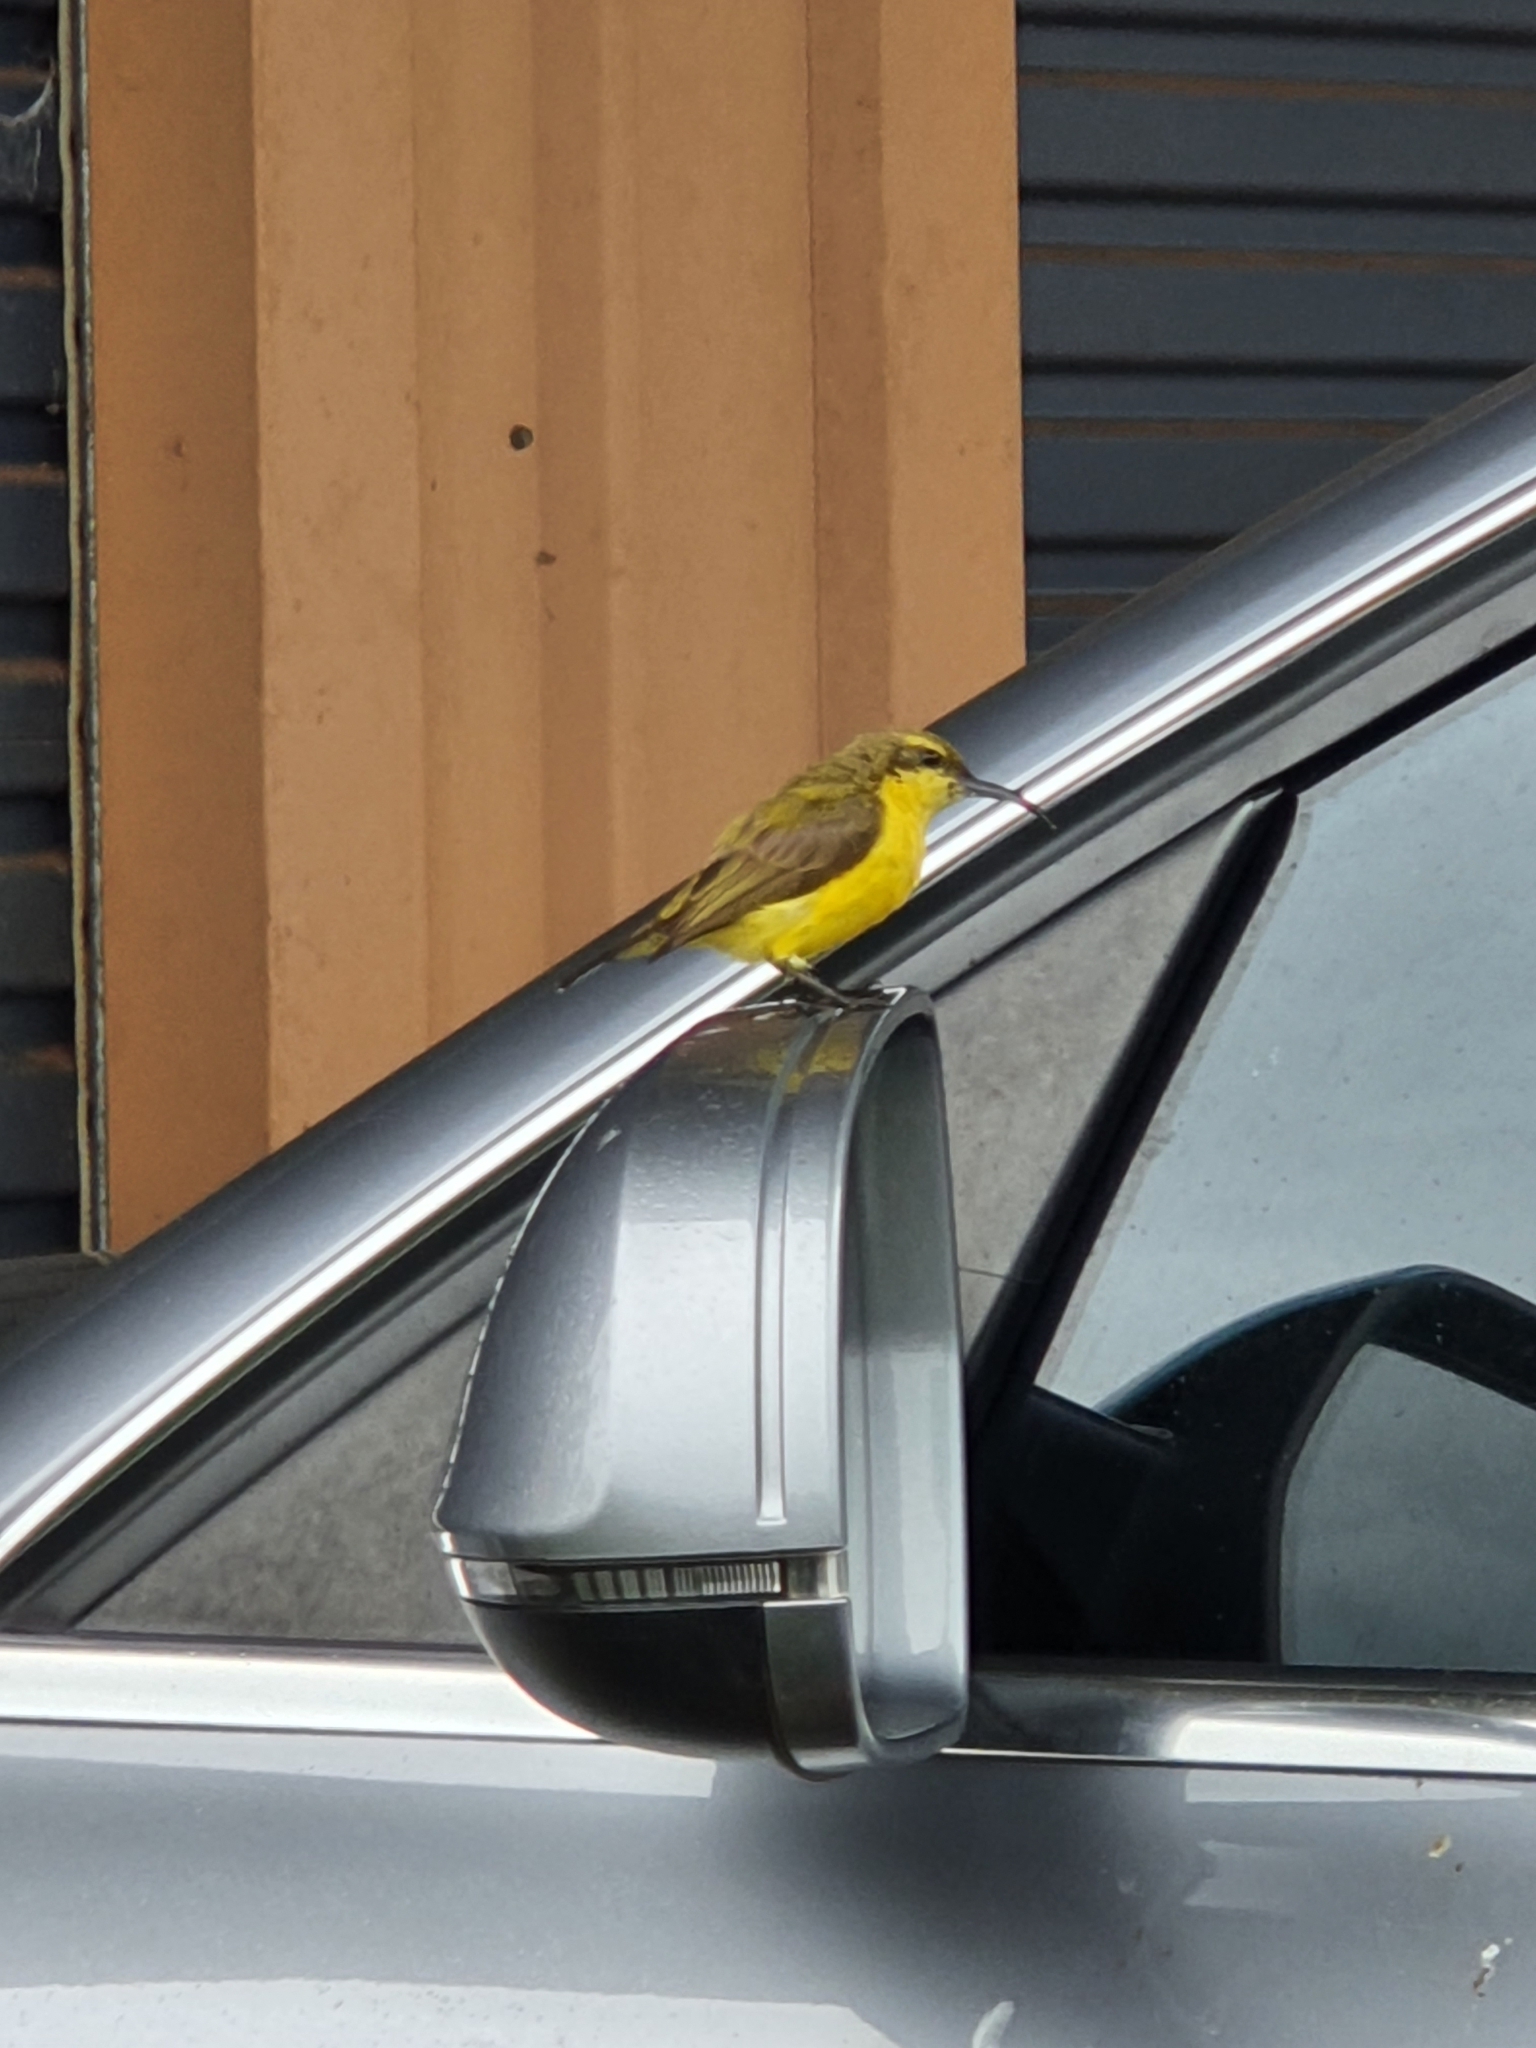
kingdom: Animalia
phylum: Chordata
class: Aves
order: Passeriformes
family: Nectariniidae
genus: Cinnyris
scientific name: Cinnyris
